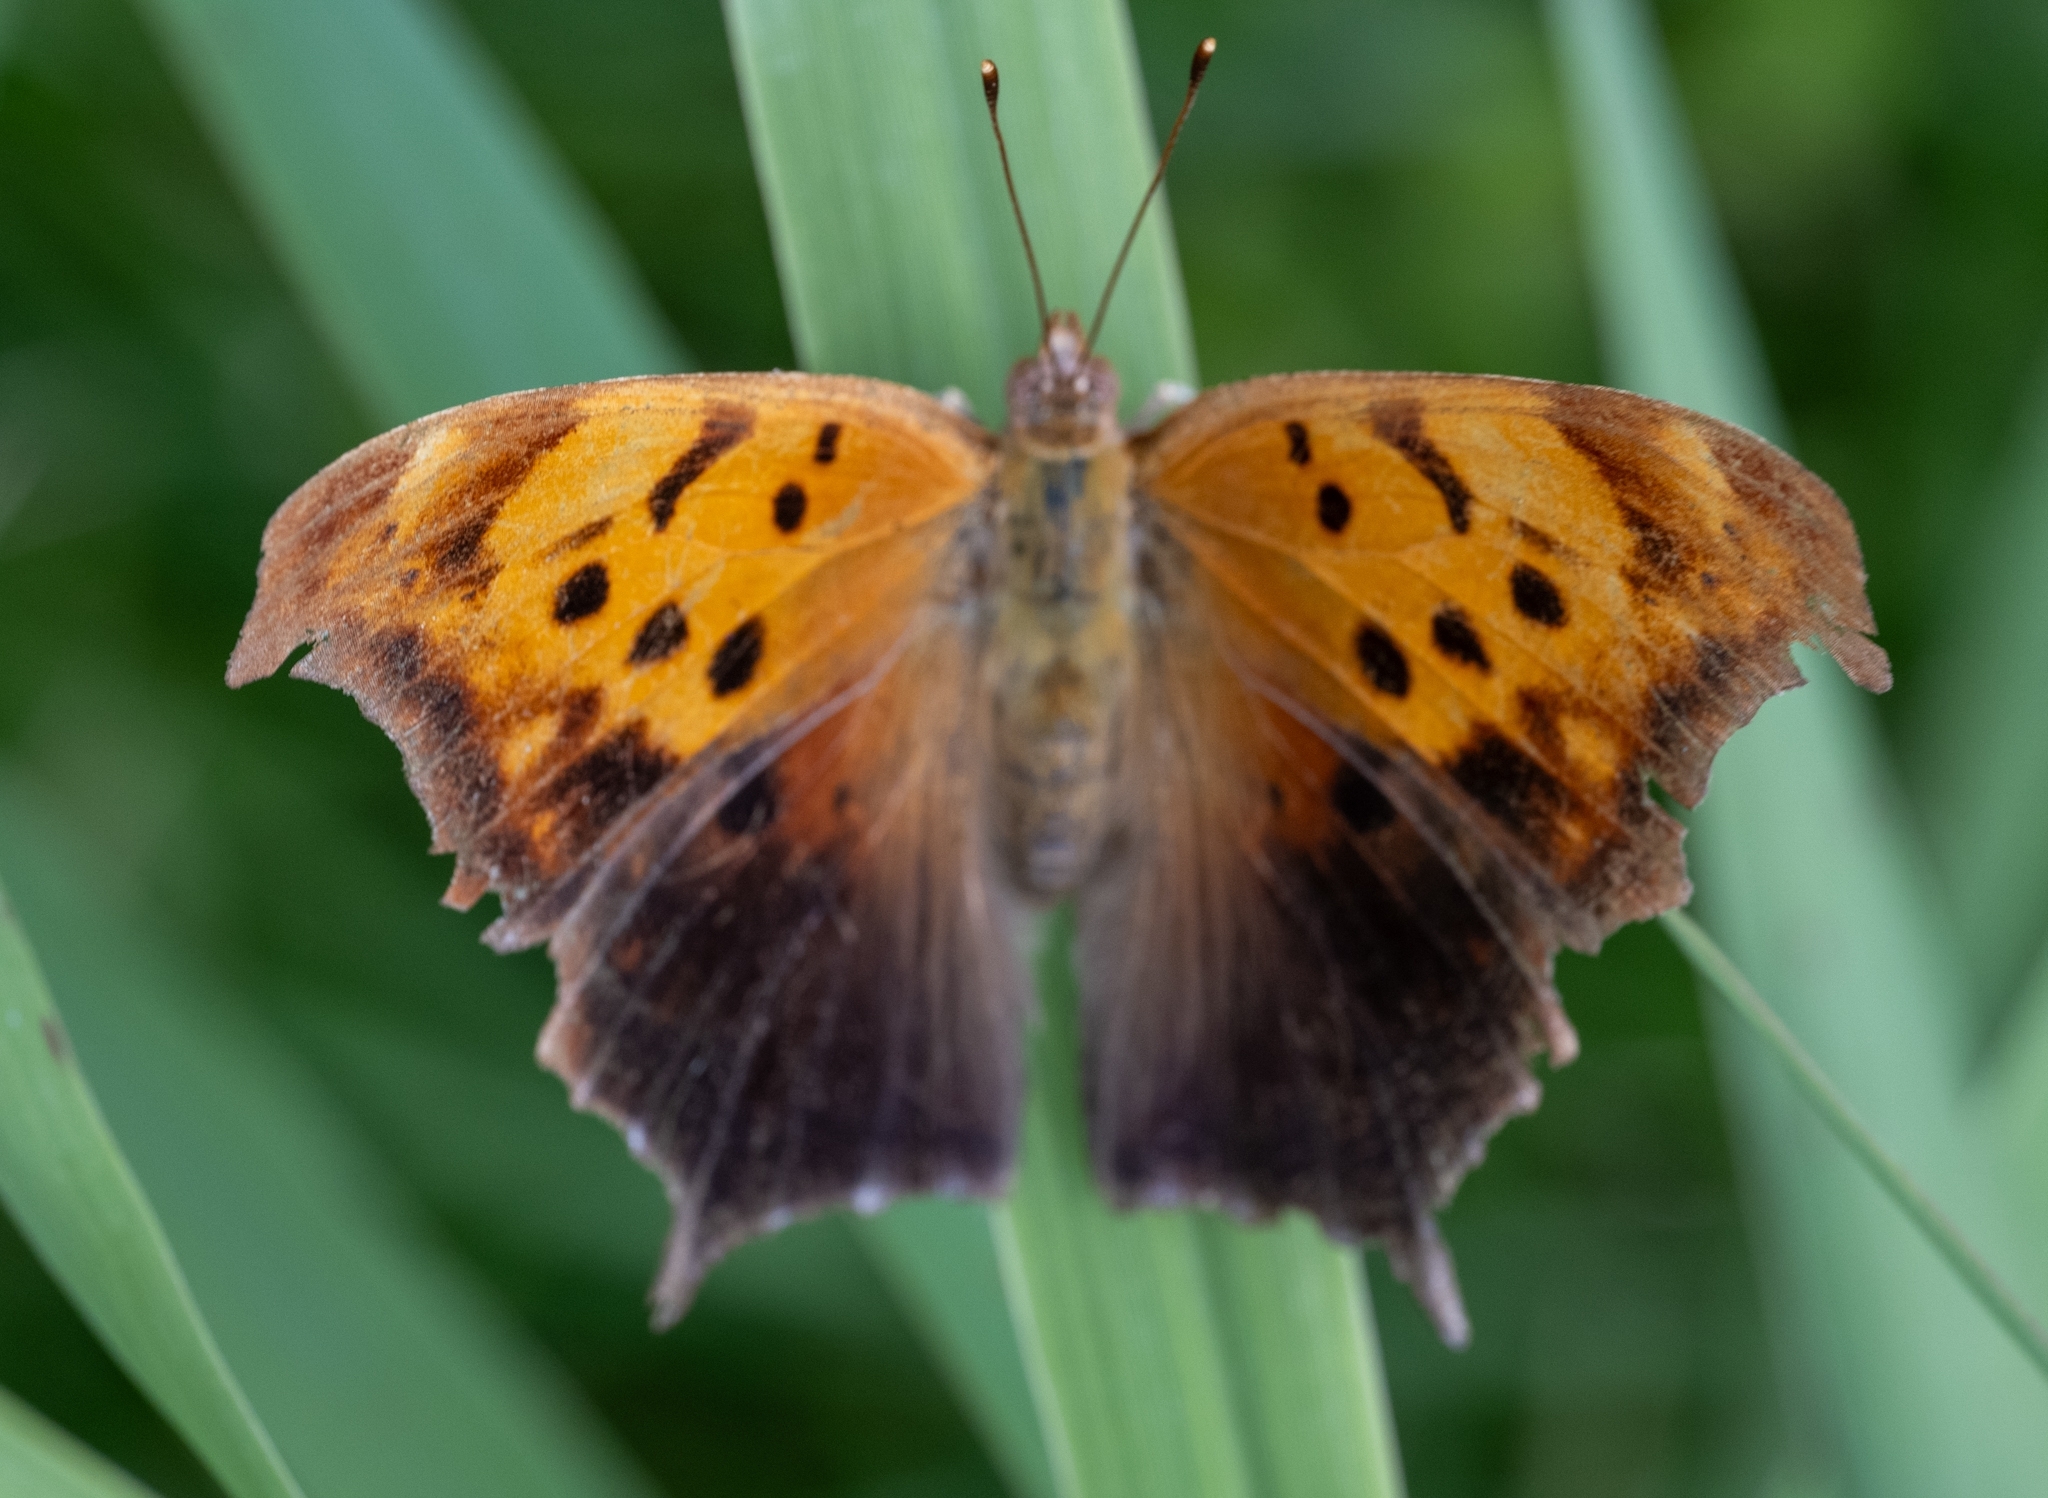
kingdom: Animalia
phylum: Arthropoda
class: Insecta
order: Lepidoptera
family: Nymphalidae
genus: Polygonia
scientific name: Polygonia interrogationis
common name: Question mark
